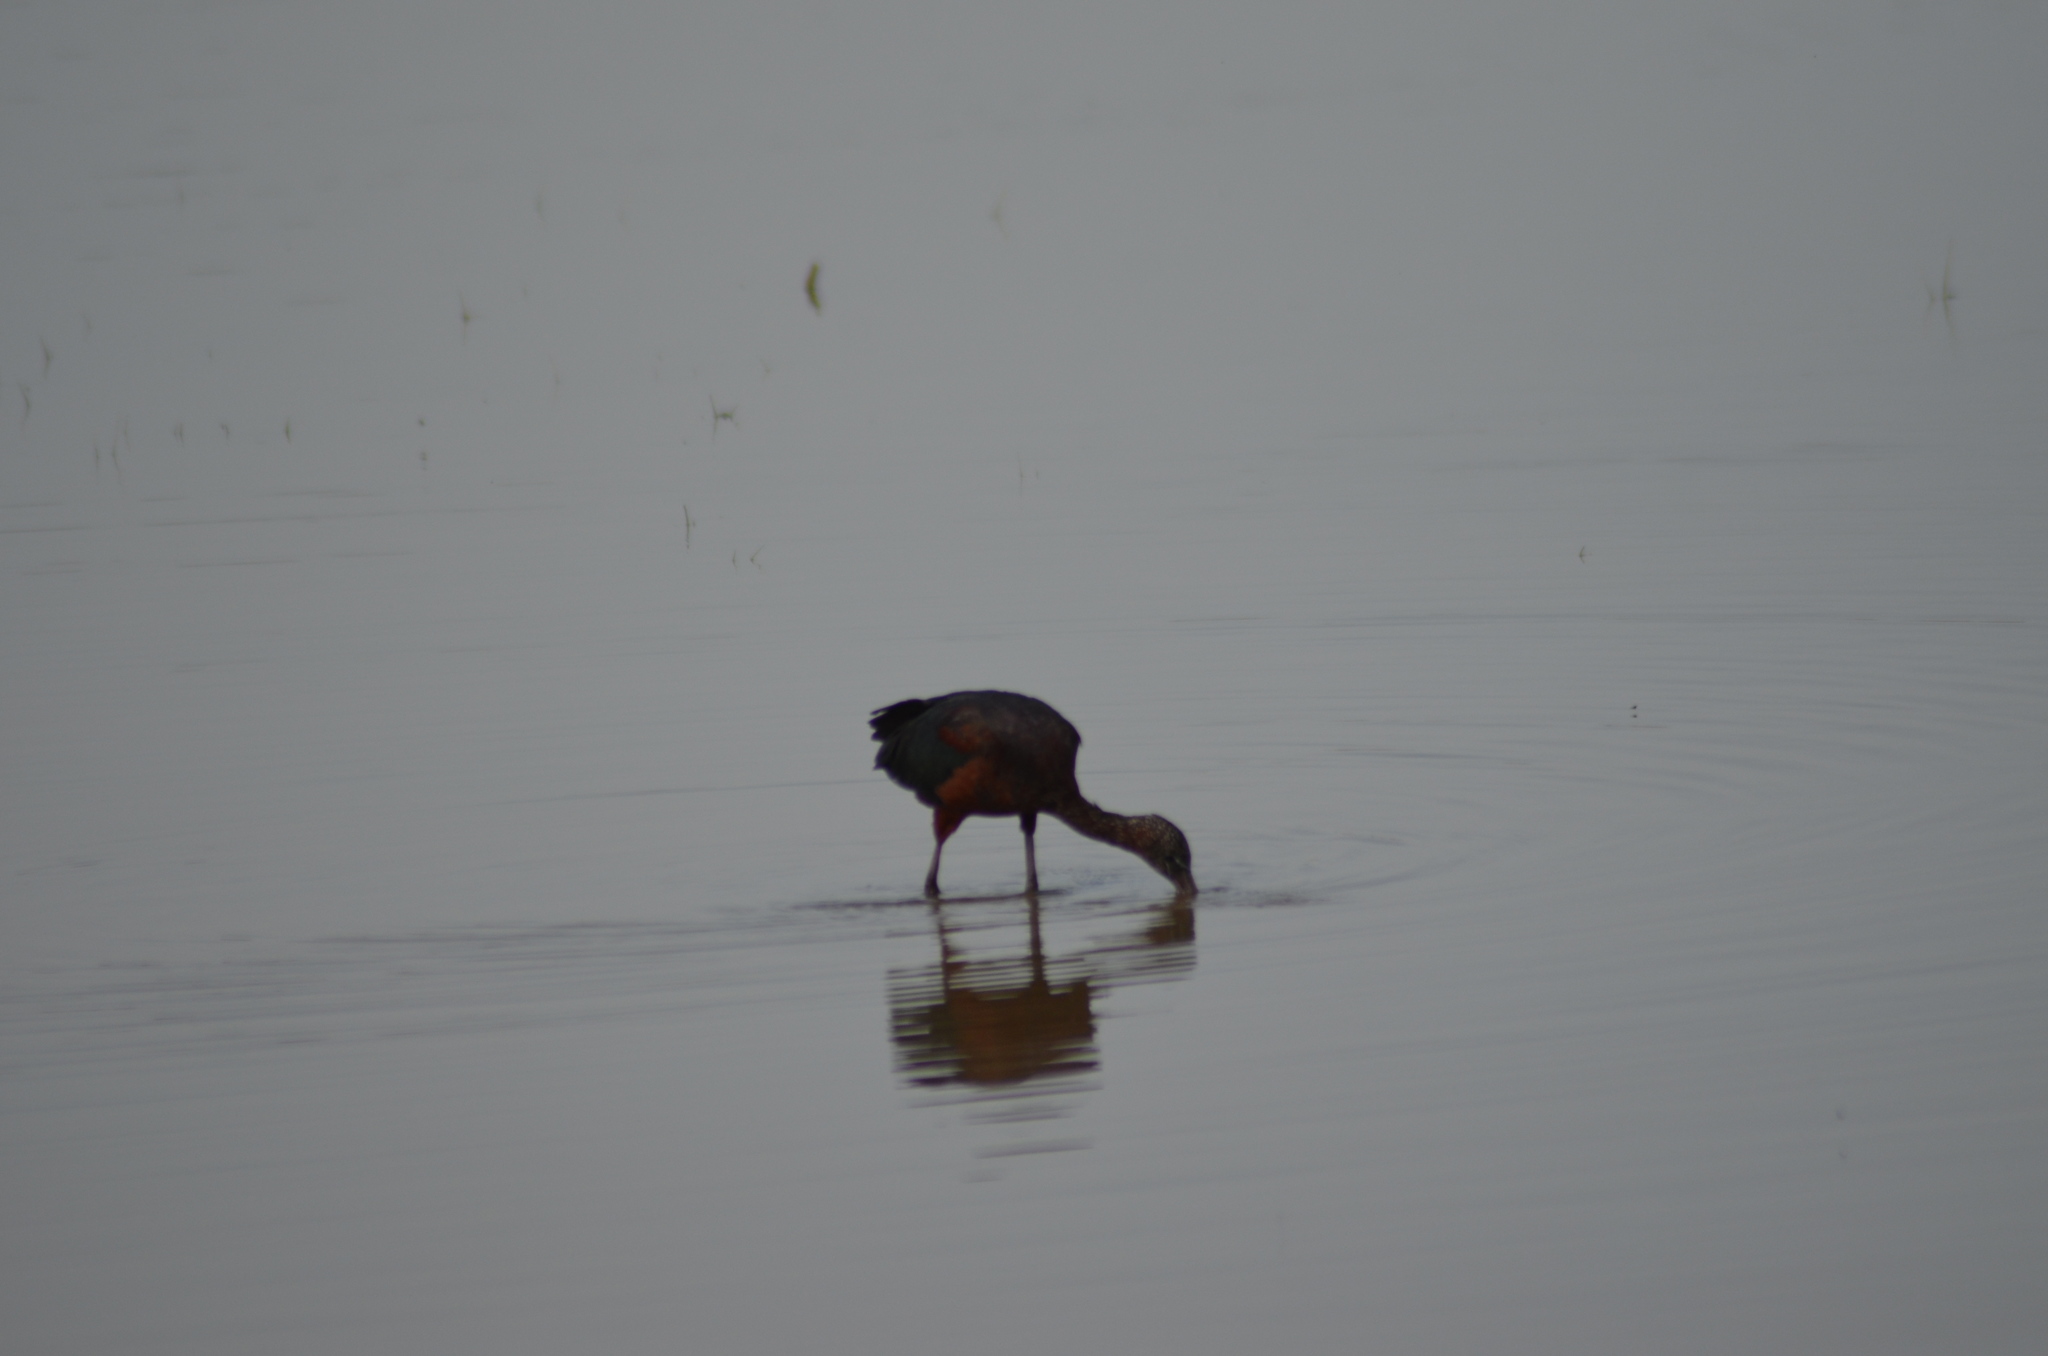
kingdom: Animalia
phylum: Chordata
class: Aves
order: Pelecaniformes
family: Threskiornithidae
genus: Plegadis
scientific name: Plegadis falcinellus
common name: Glossy ibis
